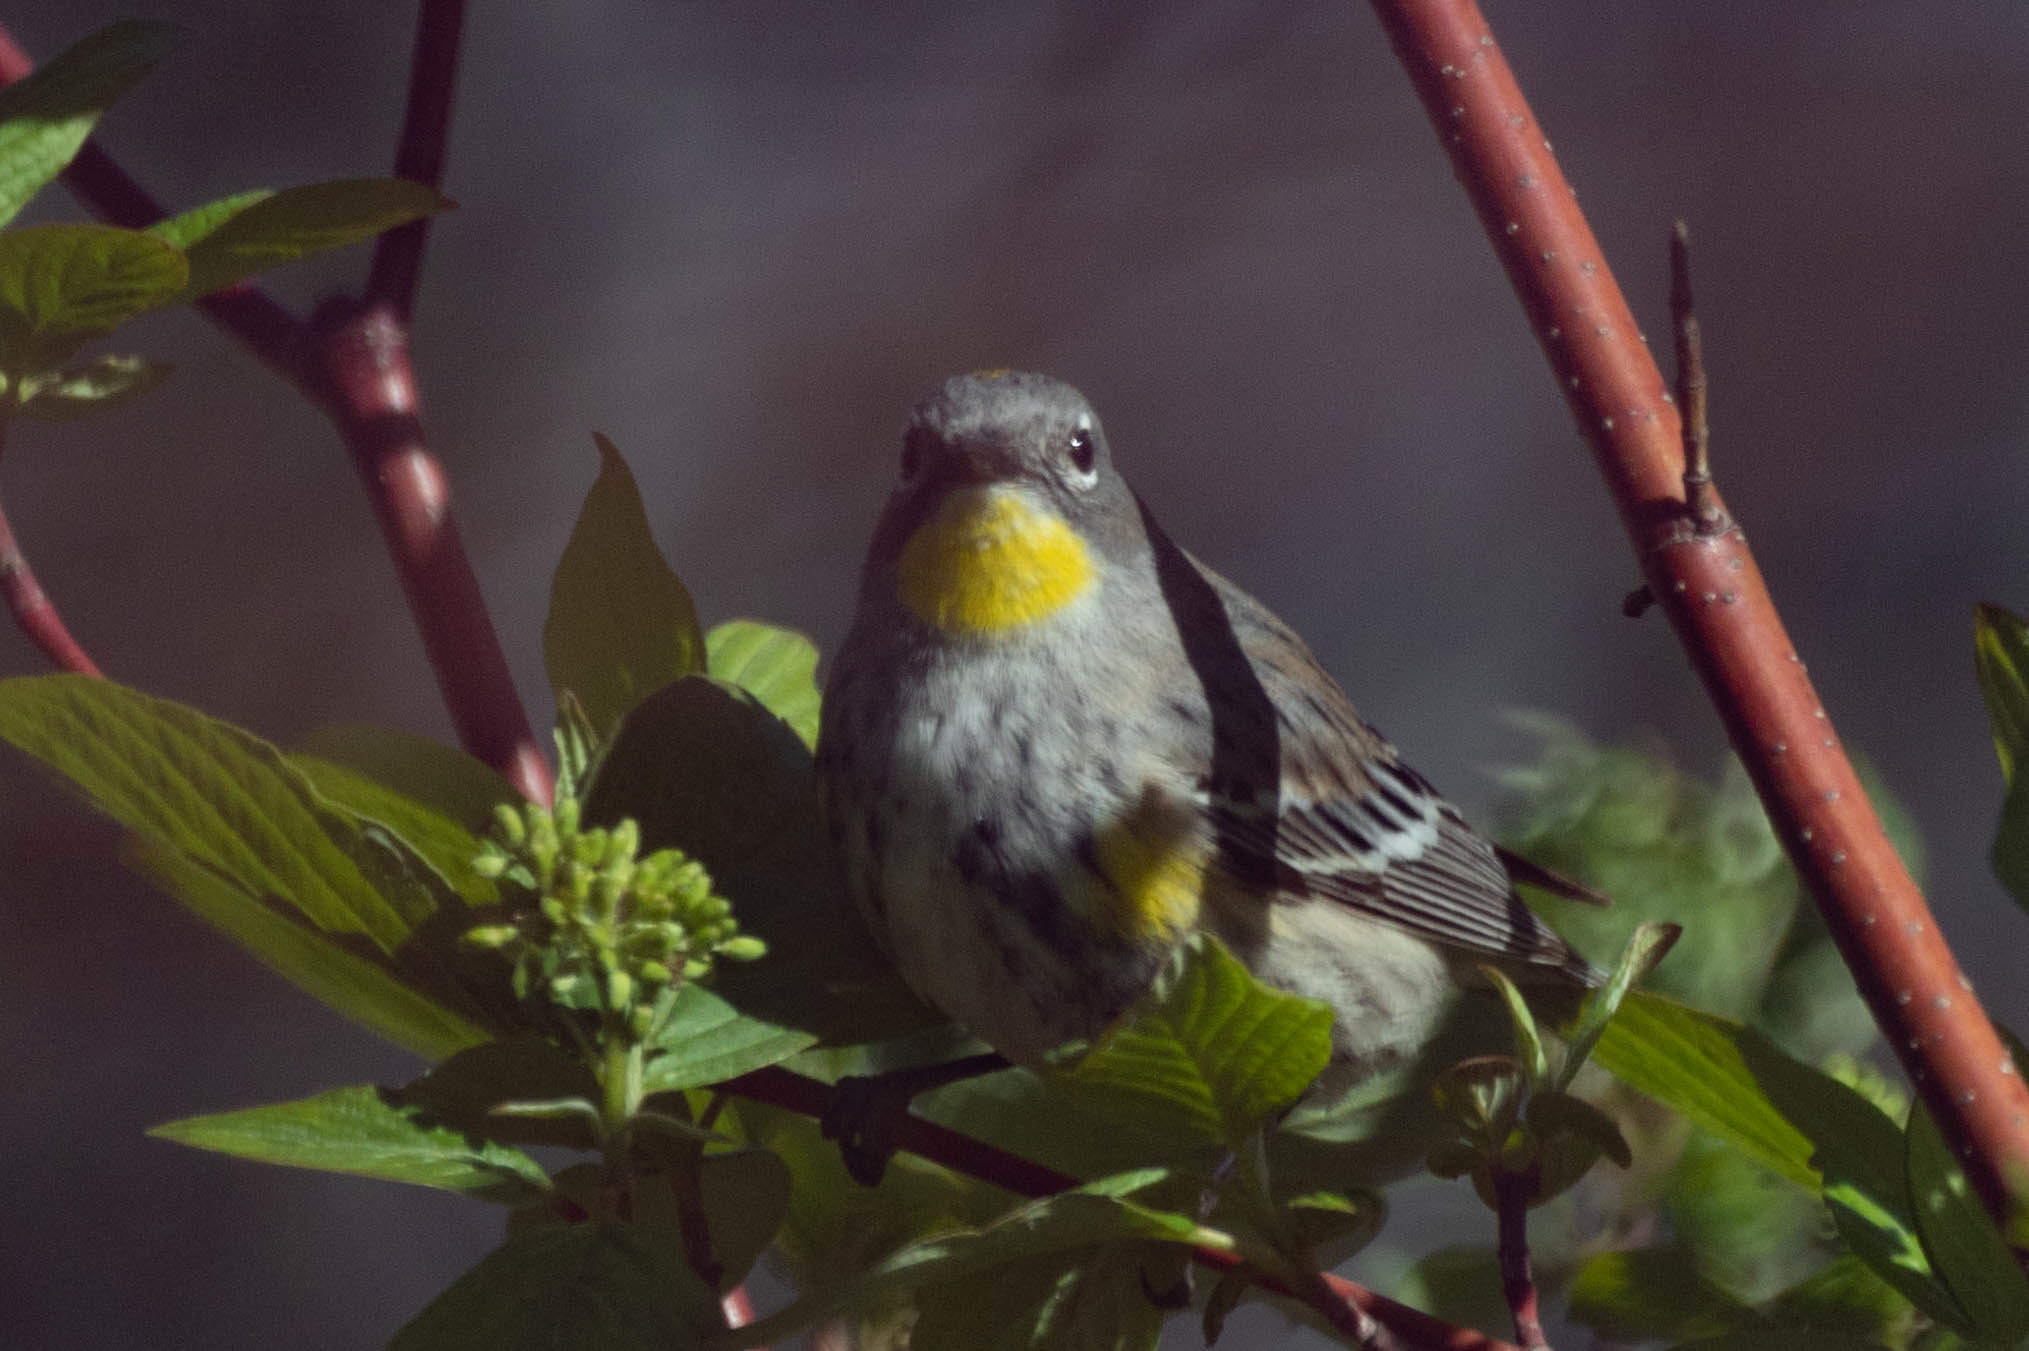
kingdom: Animalia
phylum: Chordata
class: Aves
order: Passeriformes
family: Parulidae
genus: Setophaga
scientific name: Setophaga coronata
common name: Myrtle warbler
